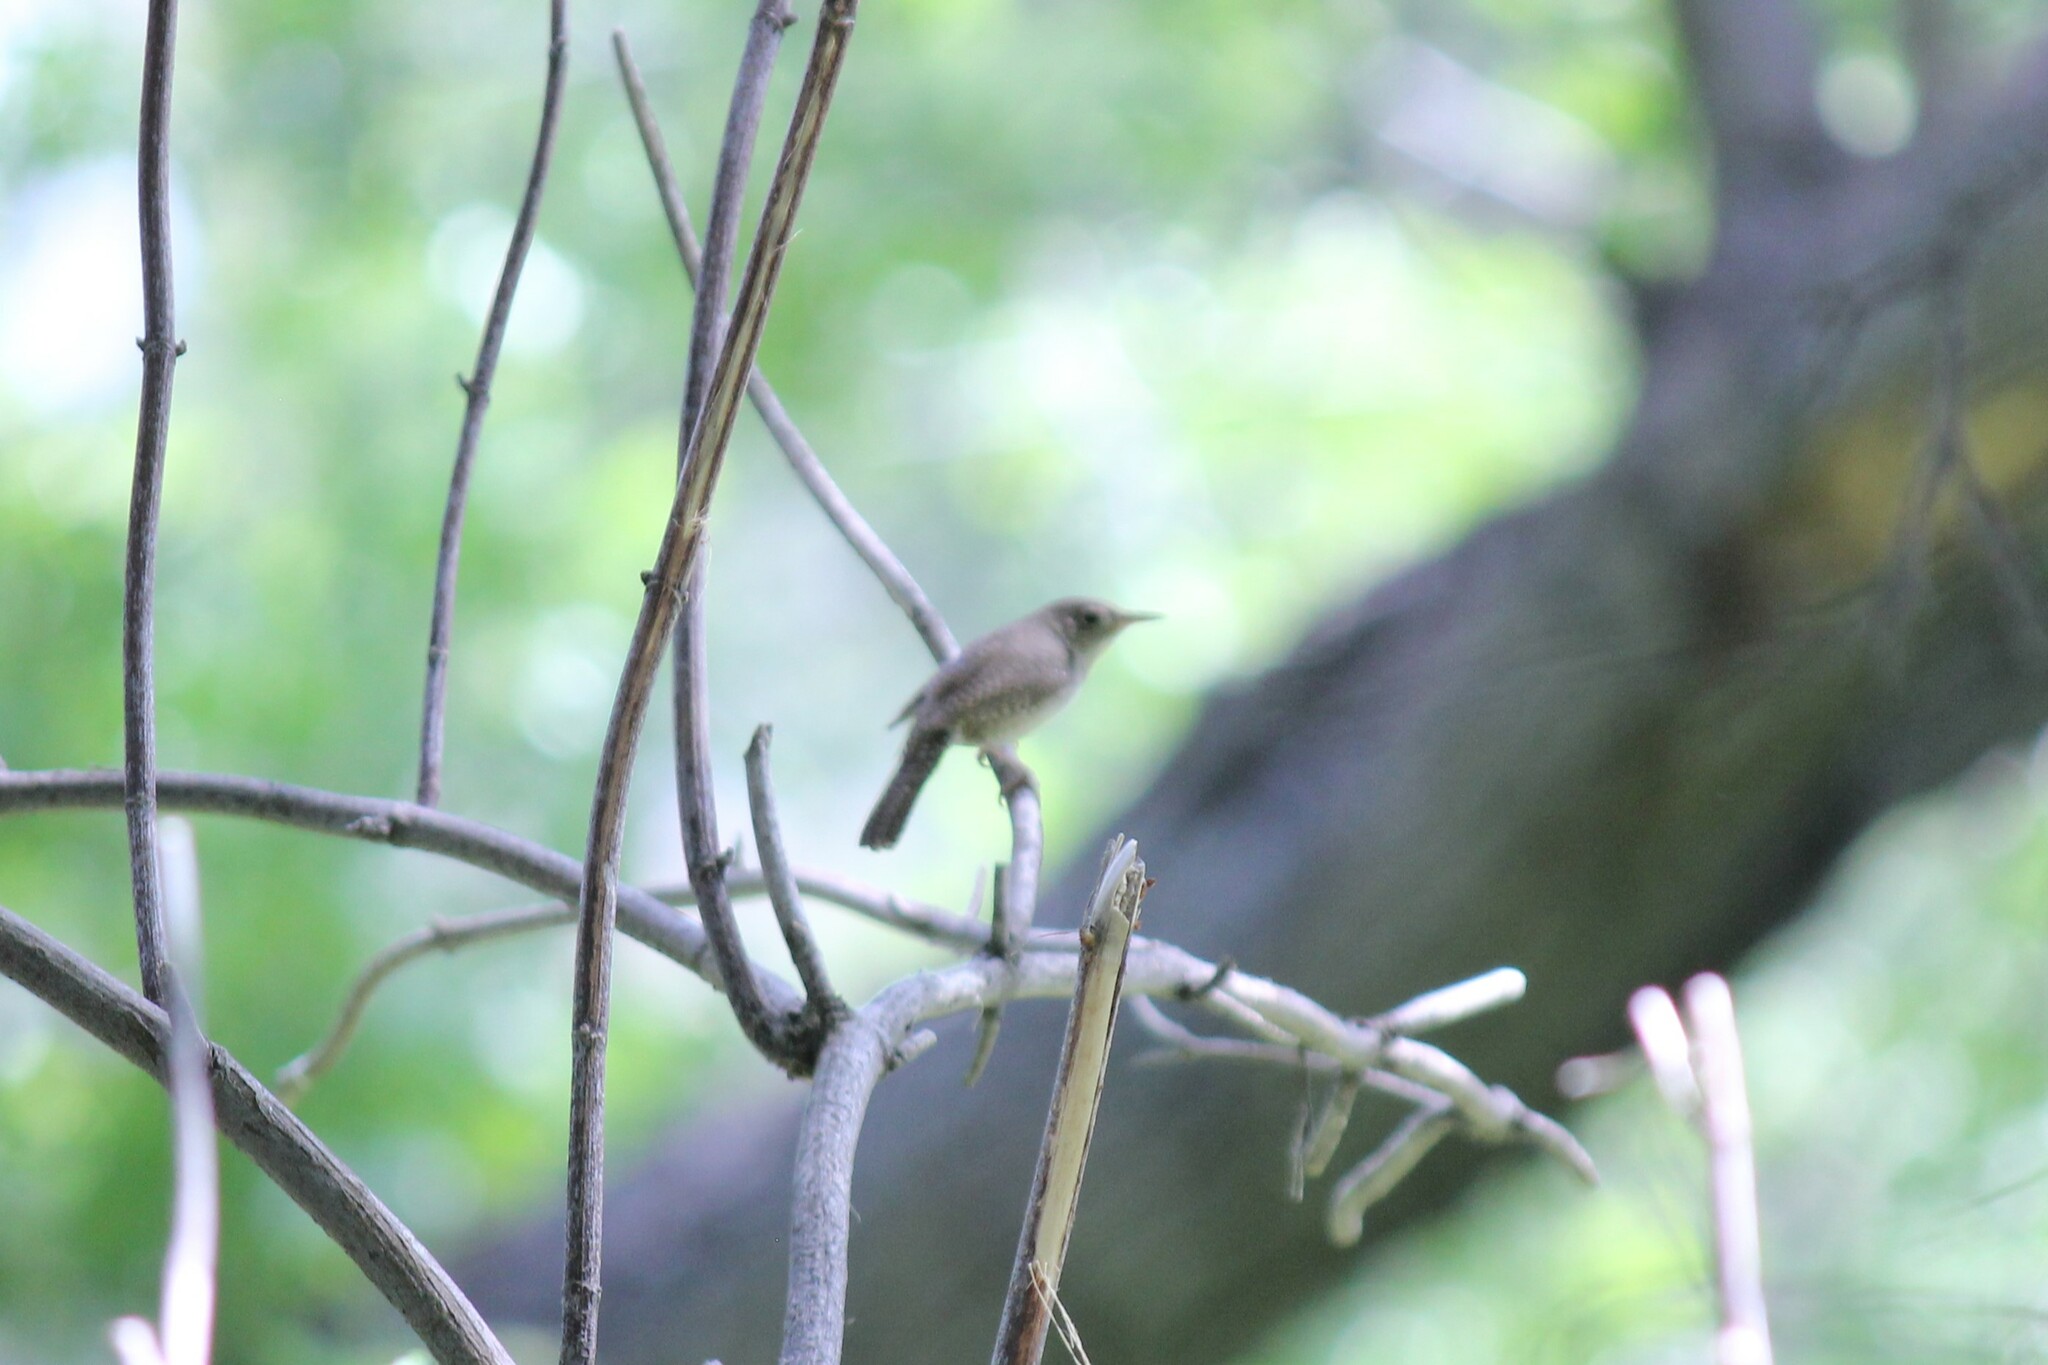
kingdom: Animalia
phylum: Chordata
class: Aves
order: Passeriformes
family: Troglodytidae
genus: Troglodytes
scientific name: Troglodytes aedon
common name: House wren
